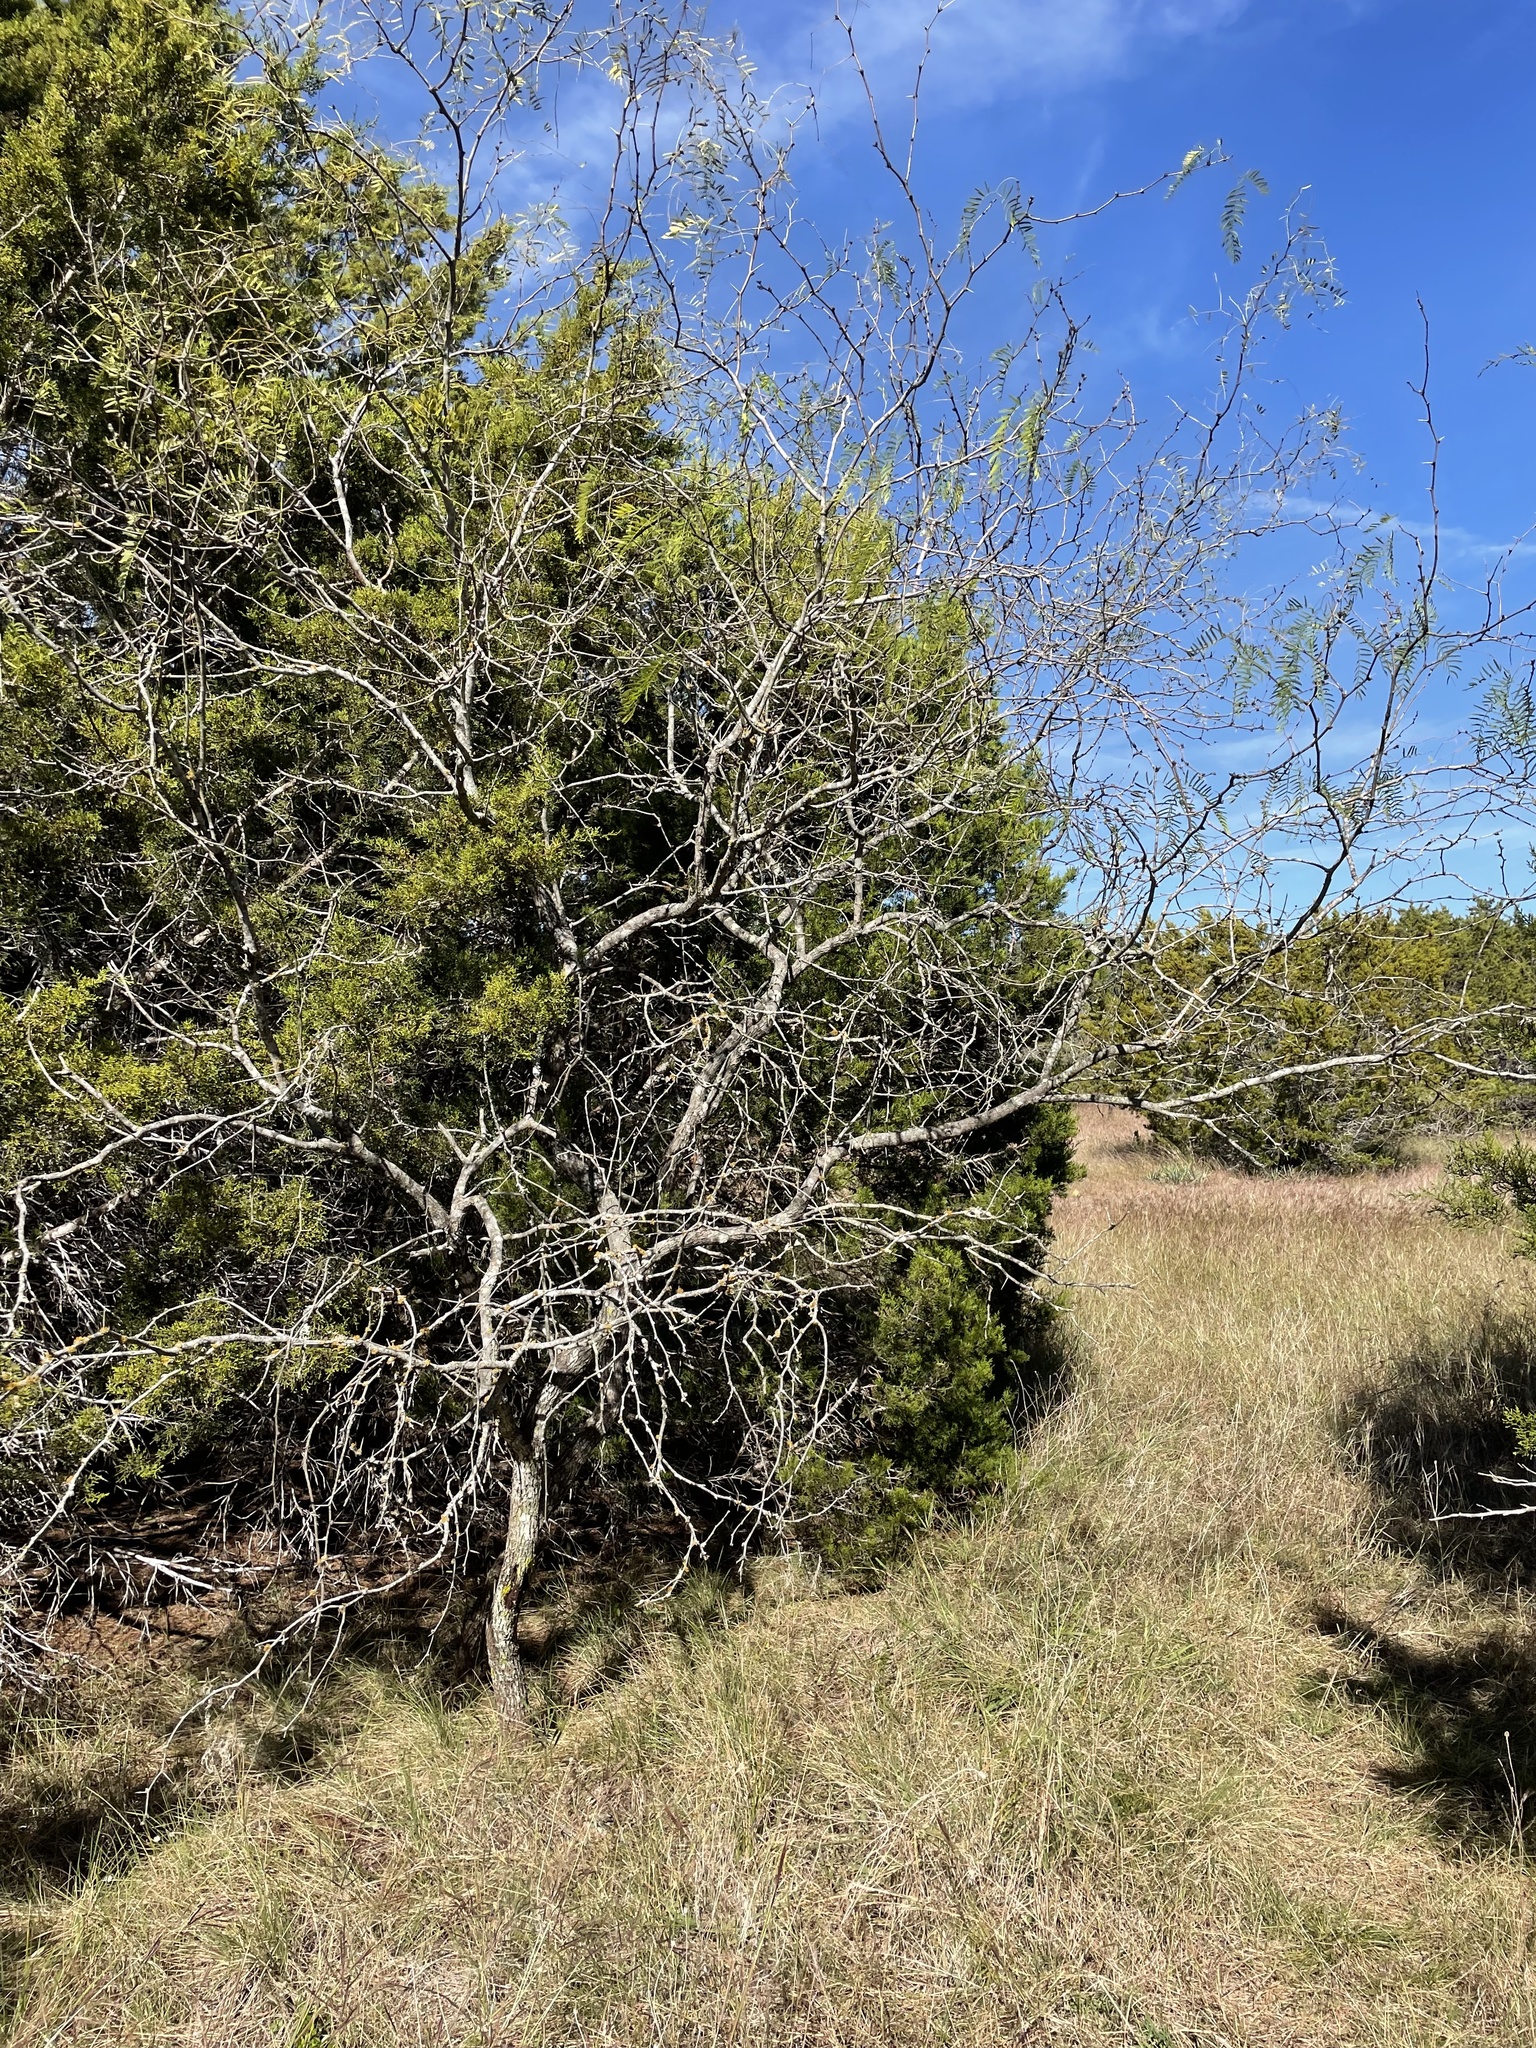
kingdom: Plantae
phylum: Tracheophyta
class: Magnoliopsida
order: Fabales
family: Fabaceae
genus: Prosopis
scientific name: Prosopis glandulosa
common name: Honey mesquite
